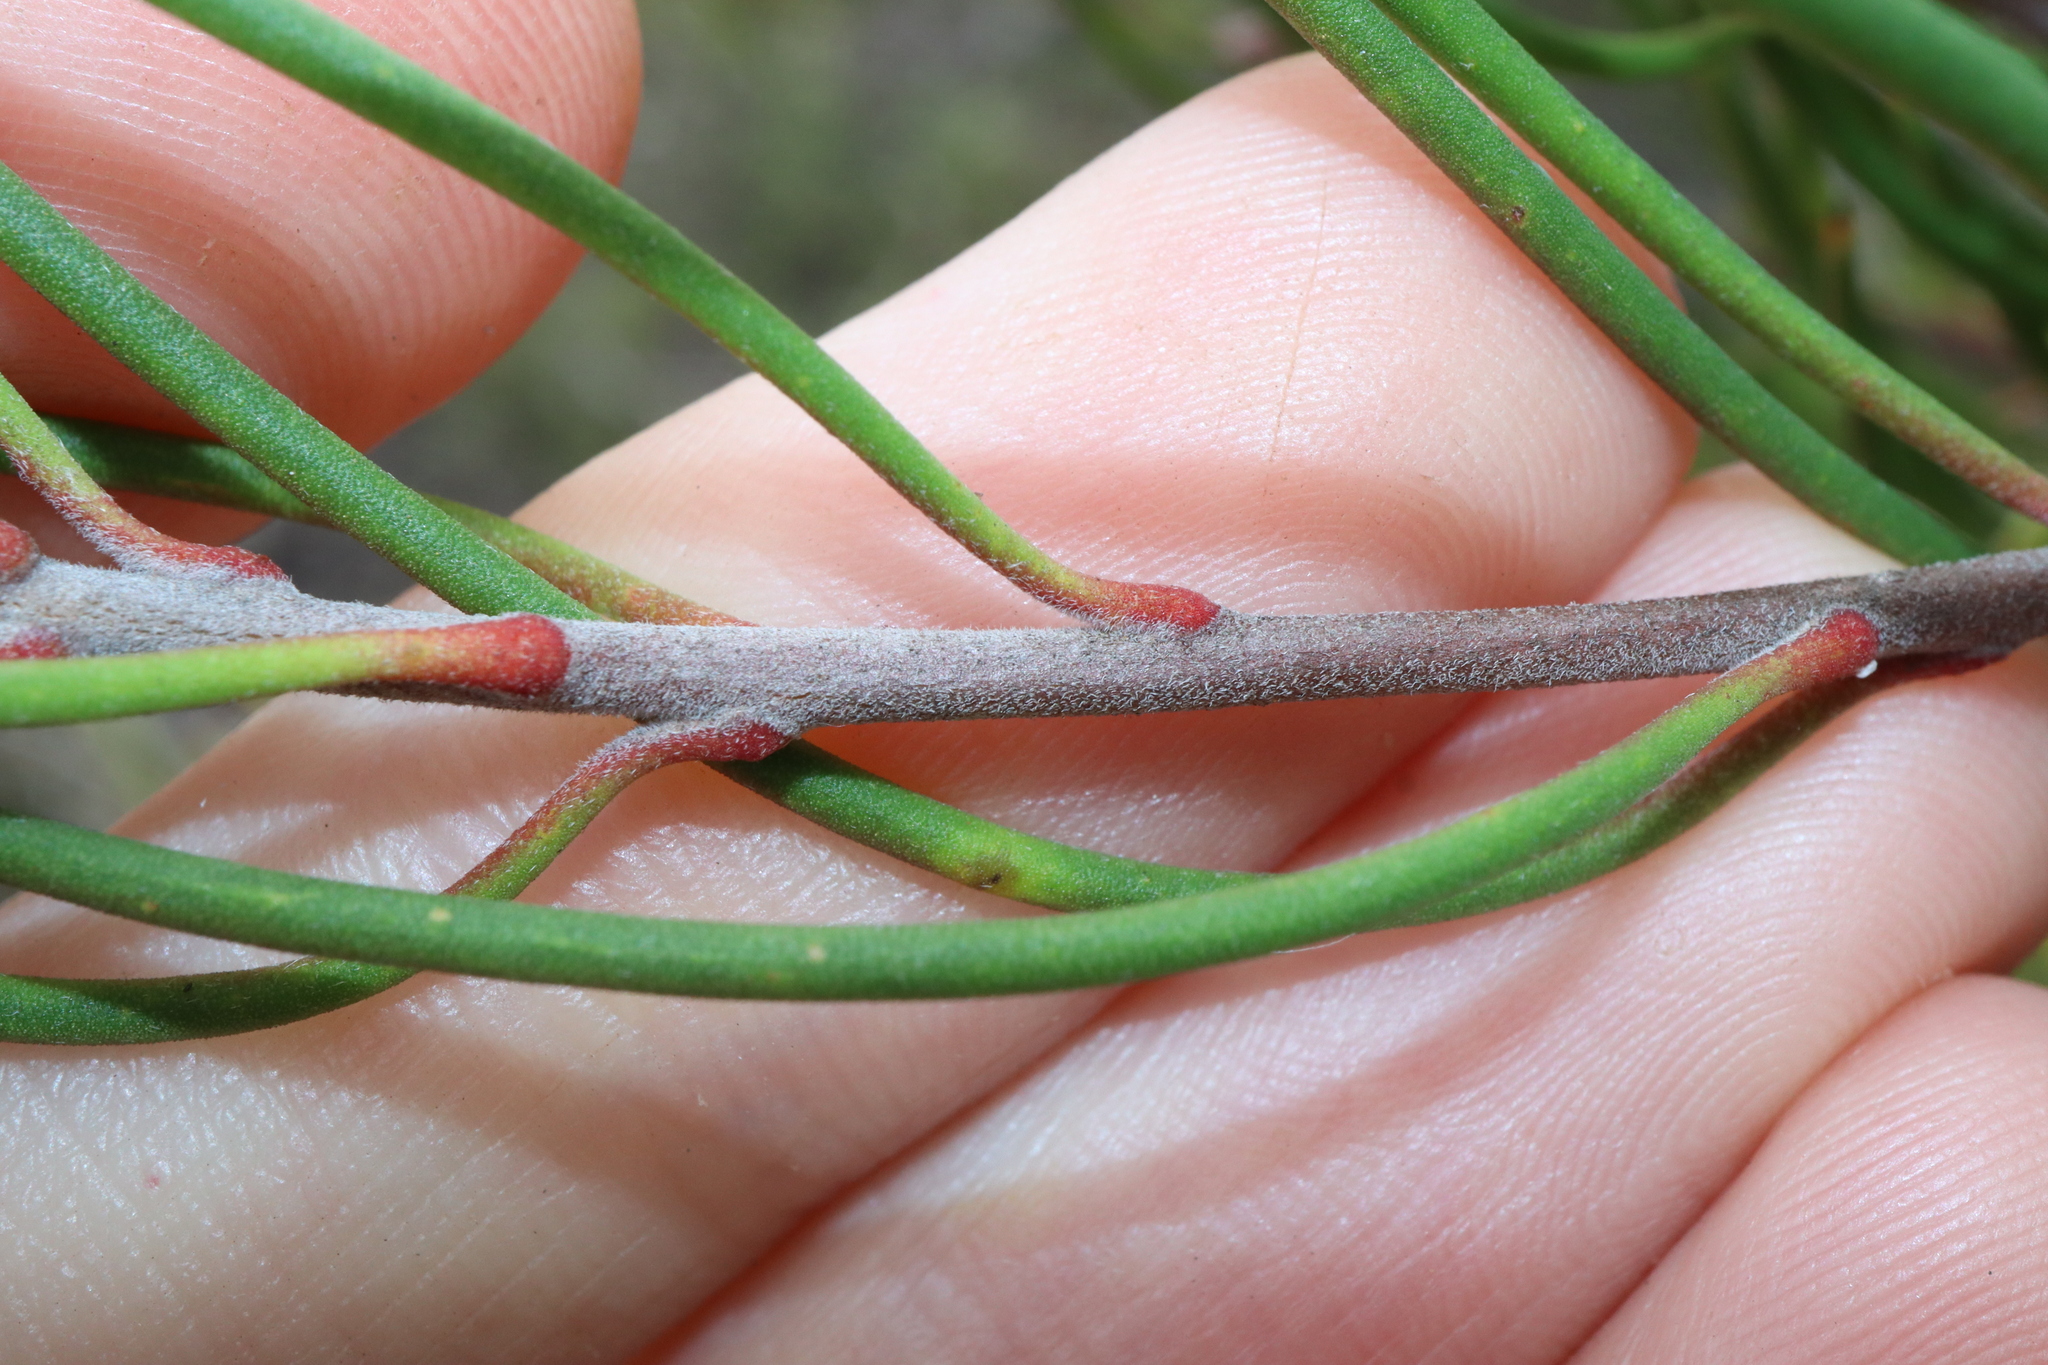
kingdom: Plantae
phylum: Tracheophyta
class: Magnoliopsida
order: Proteales
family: Proteaceae
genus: Persoonia
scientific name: Persoonia teretifolia
